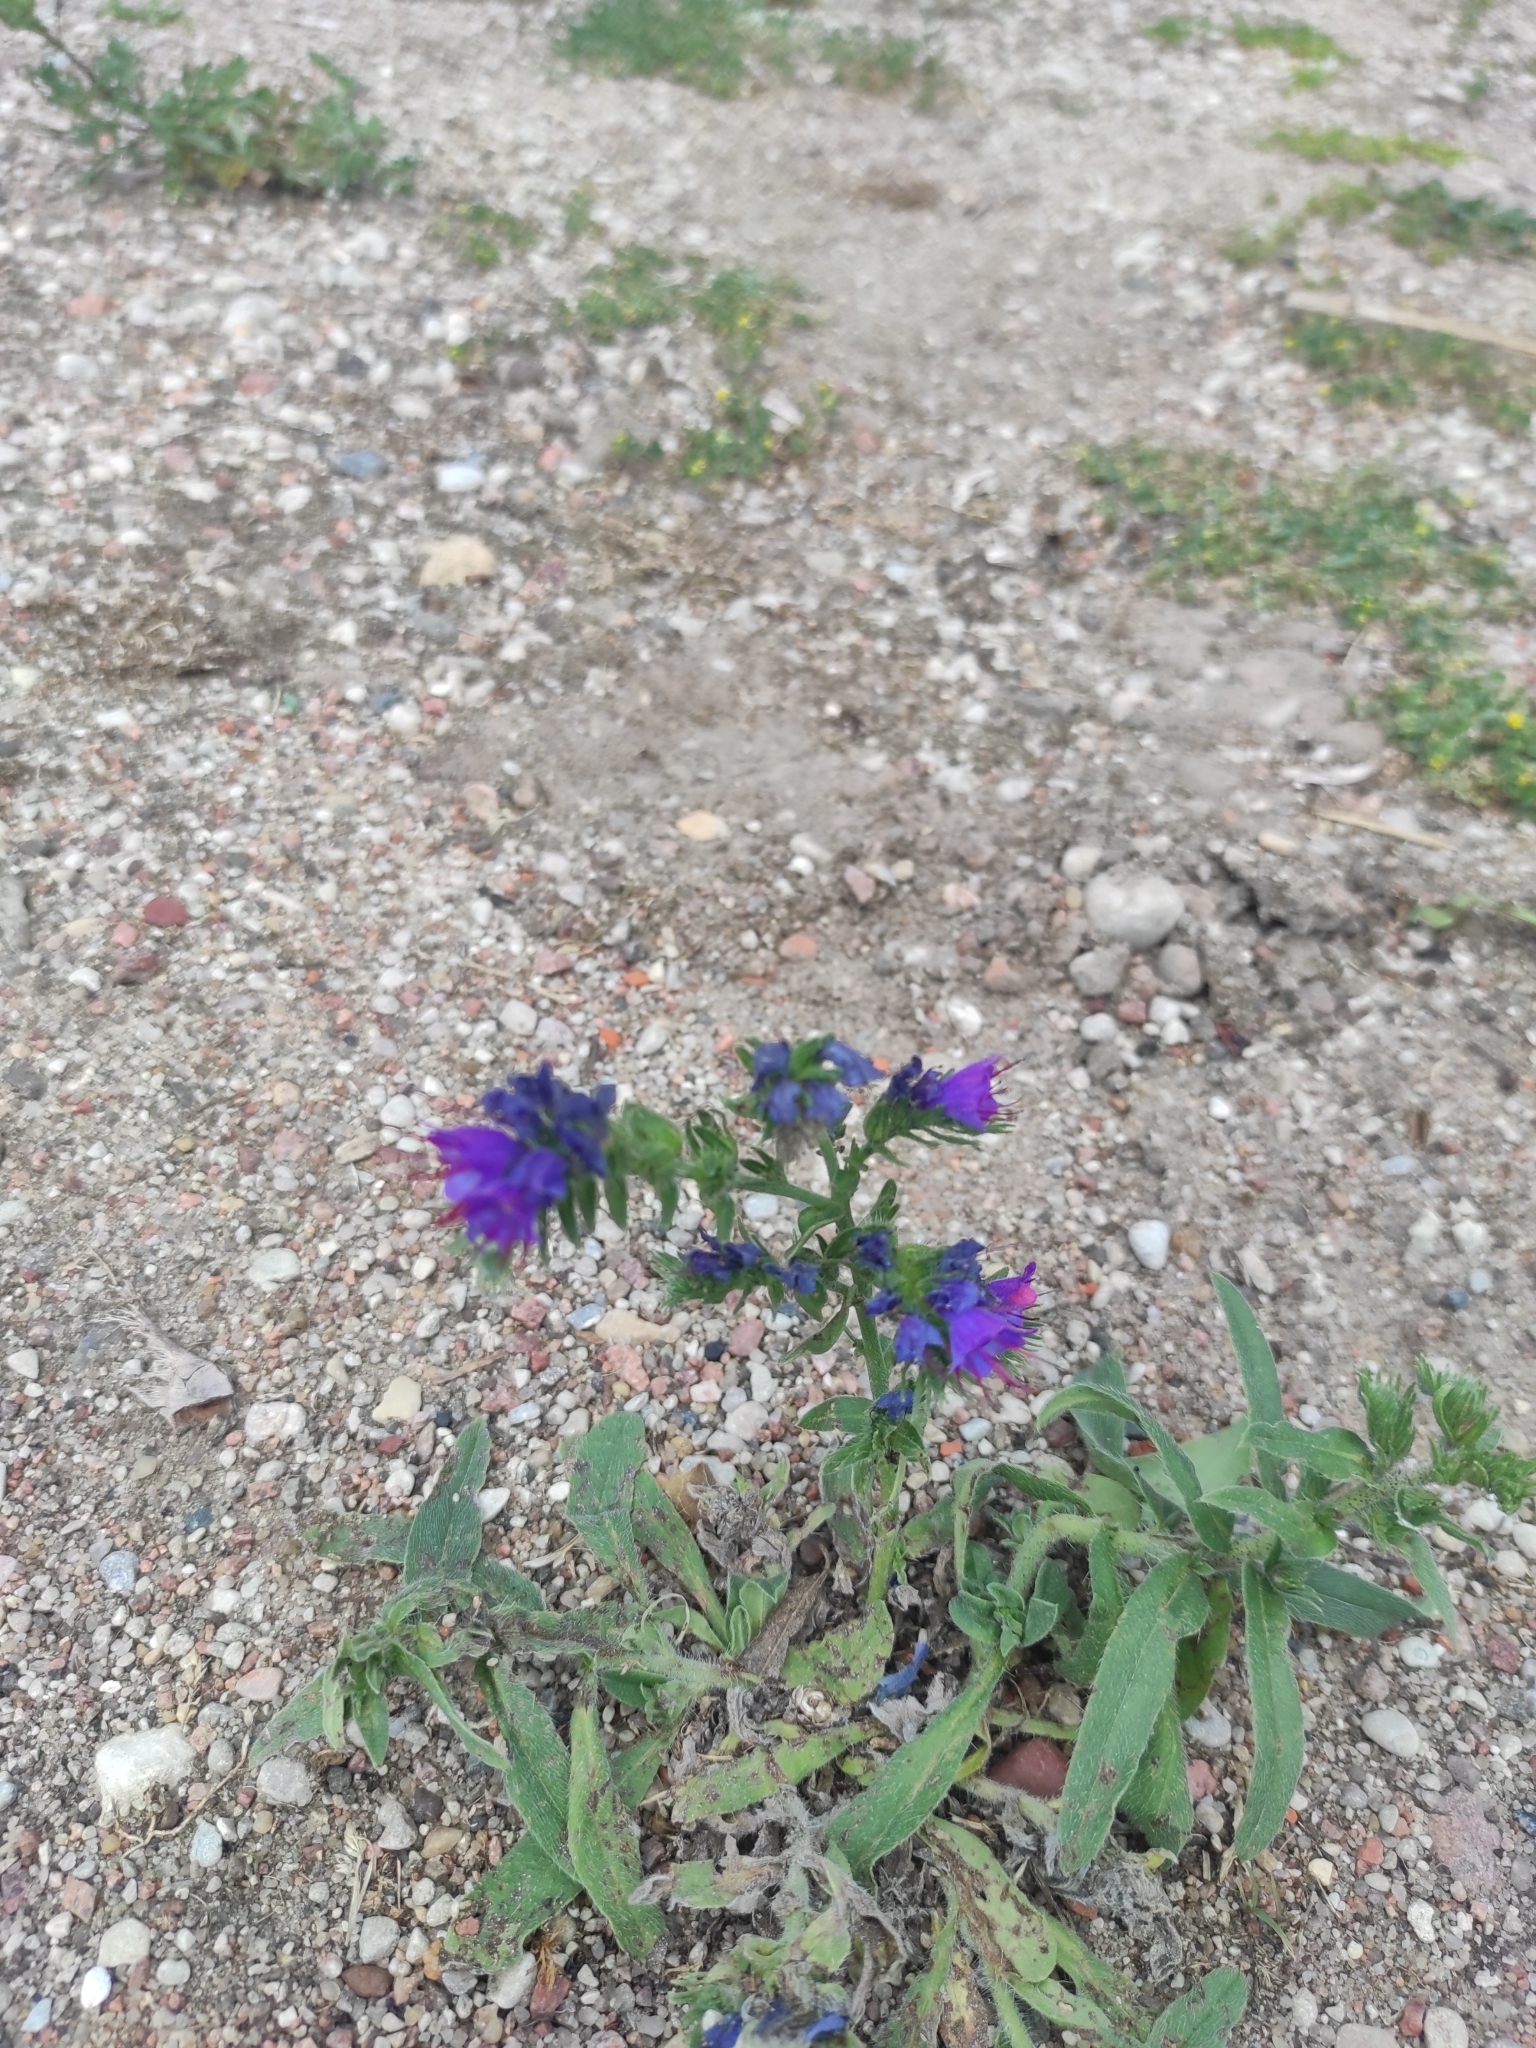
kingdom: Plantae
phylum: Tracheophyta
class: Magnoliopsida
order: Boraginales
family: Boraginaceae
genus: Echium
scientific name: Echium vulgare
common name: Common viper's bugloss
